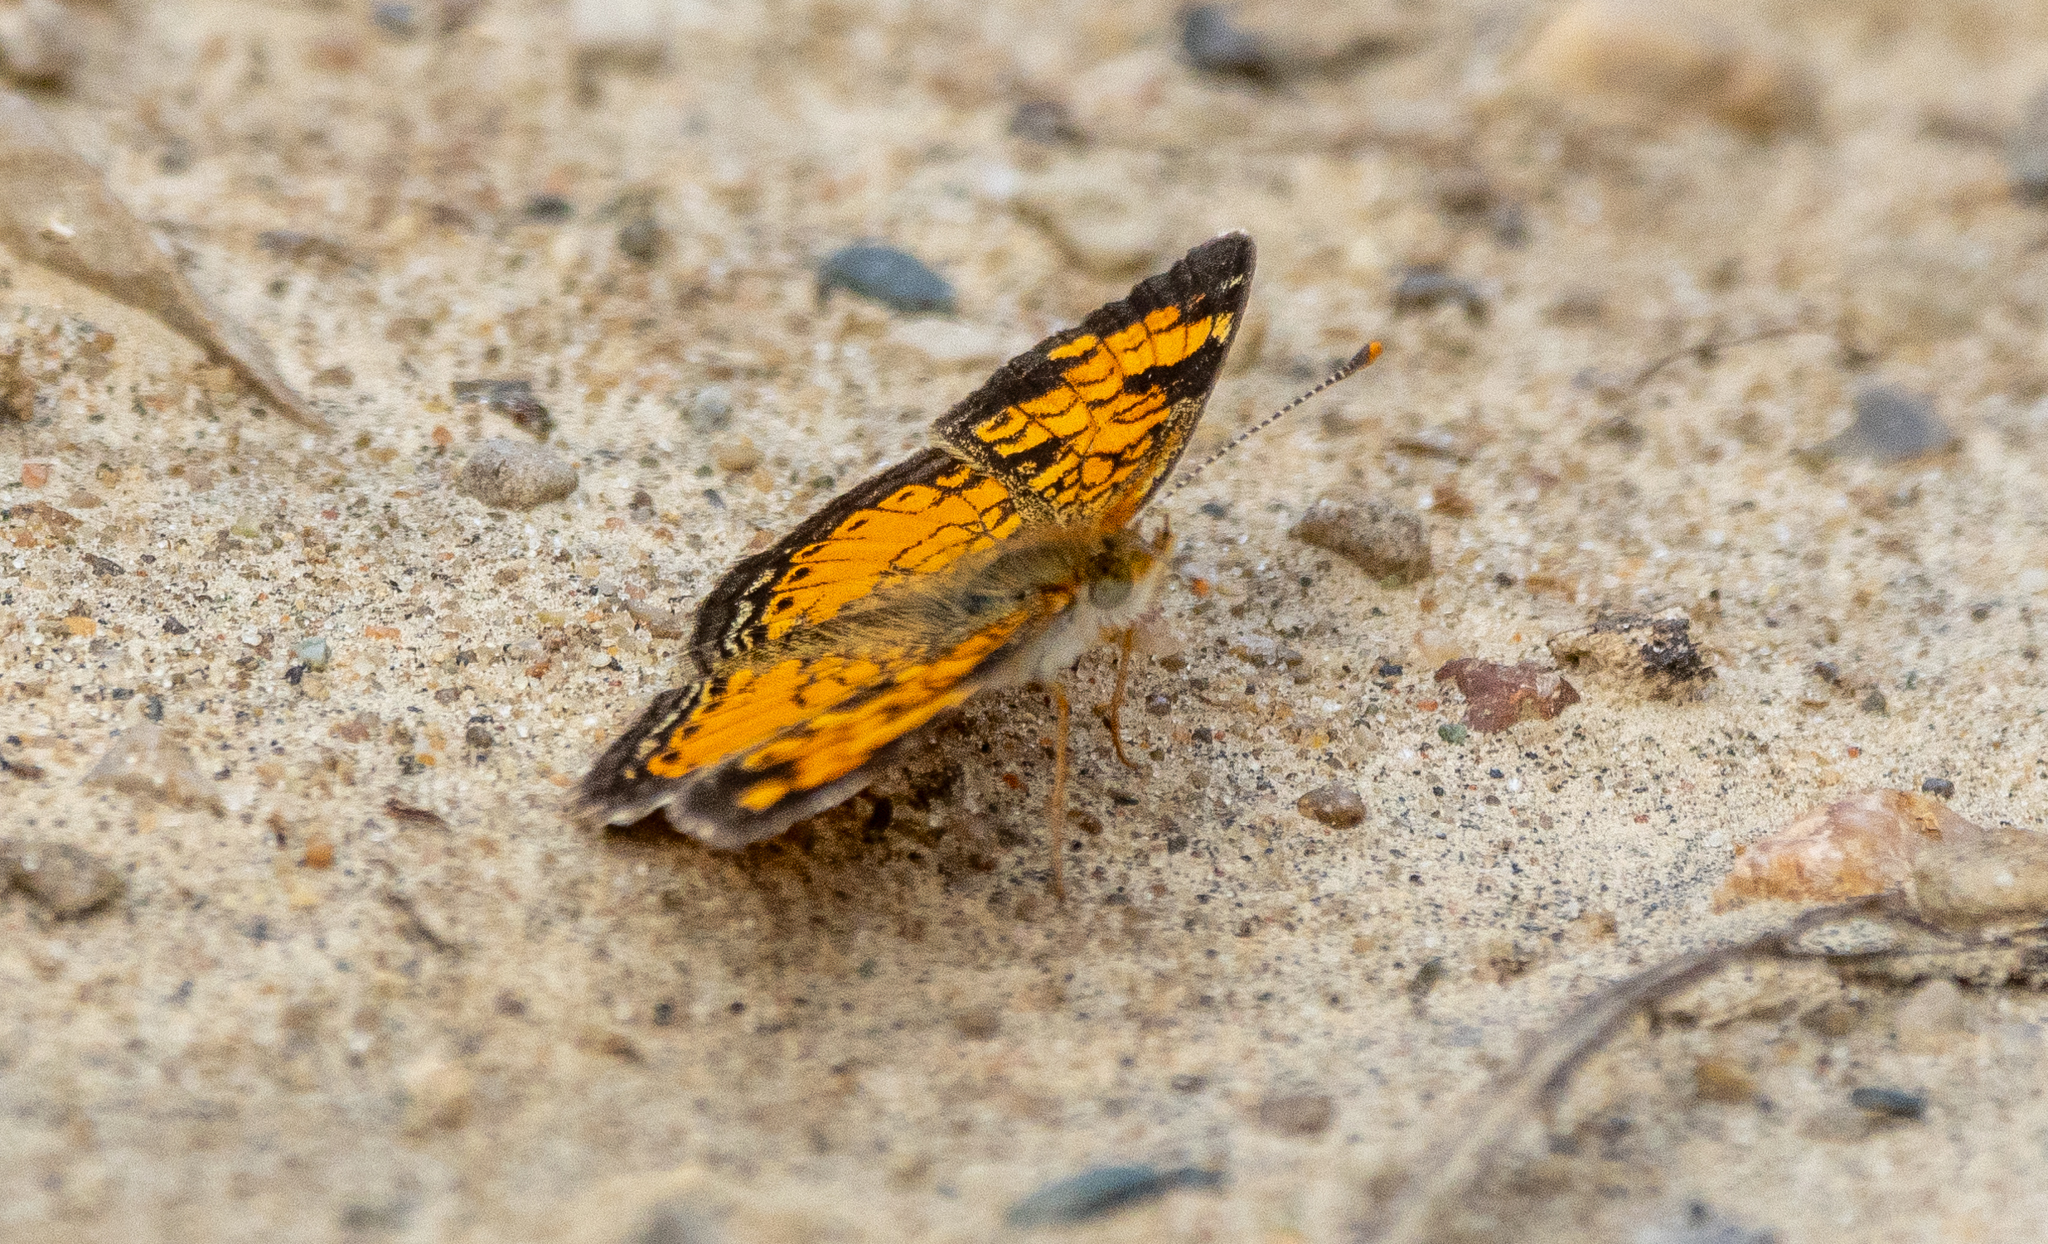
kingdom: Animalia
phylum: Arthropoda
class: Insecta
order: Lepidoptera
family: Nymphalidae
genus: Phyciodes
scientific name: Phyciodes tharos
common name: Pearl crescent
